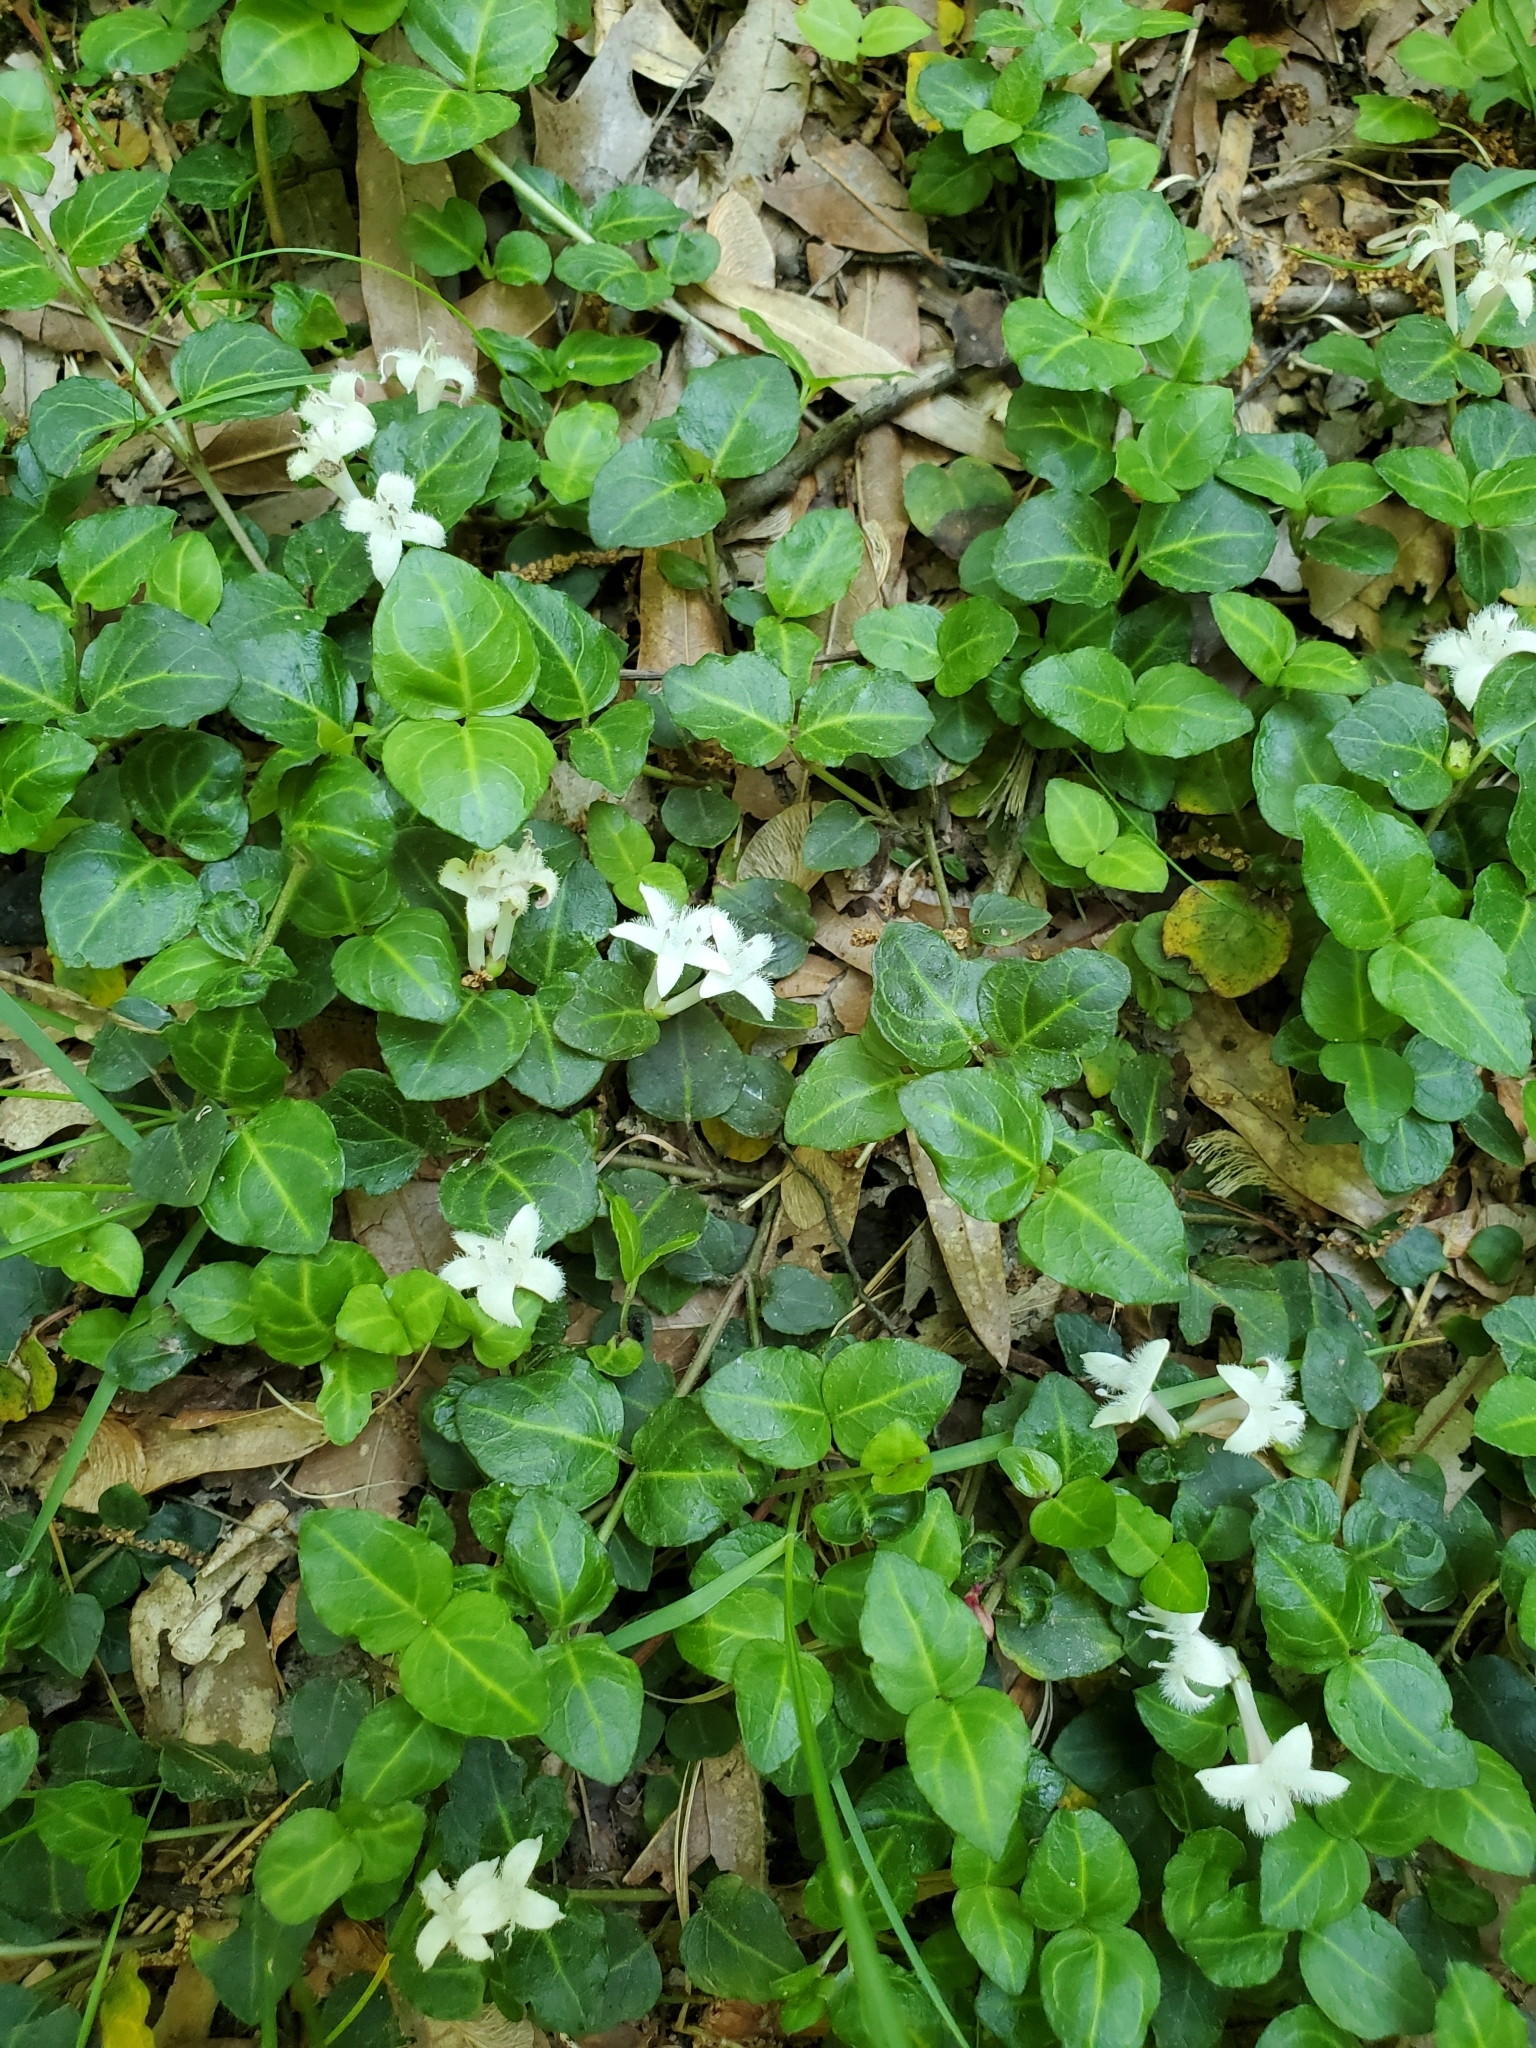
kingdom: Plantae
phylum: Tracheophyta
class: Magnoliopsida
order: Gentianales
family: Rubiaceae
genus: Mitchella
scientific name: Mitchella repens
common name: Partridge-berry
